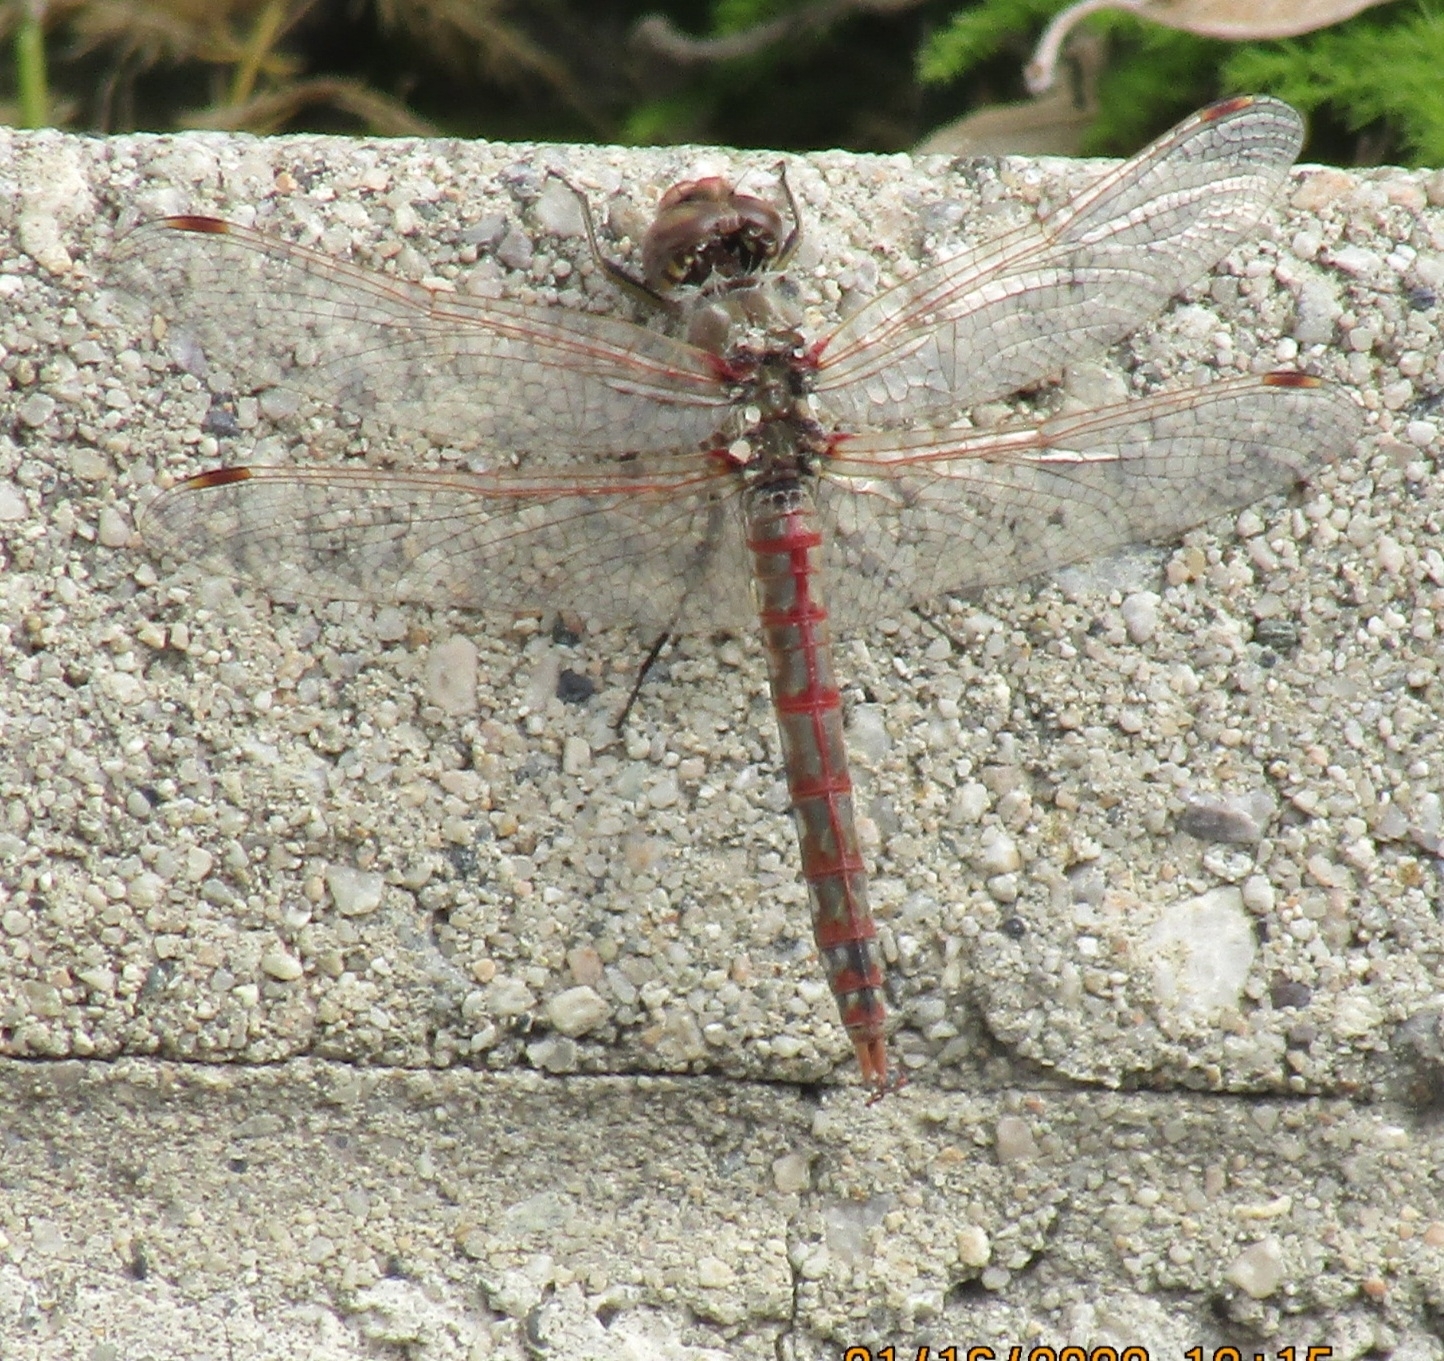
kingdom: Animalia
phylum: Arthropoda
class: Insecta
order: Odonata
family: Libellulidae
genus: Sympetrum
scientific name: Sympetrum corruptum
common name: Variegated meadowhawk
